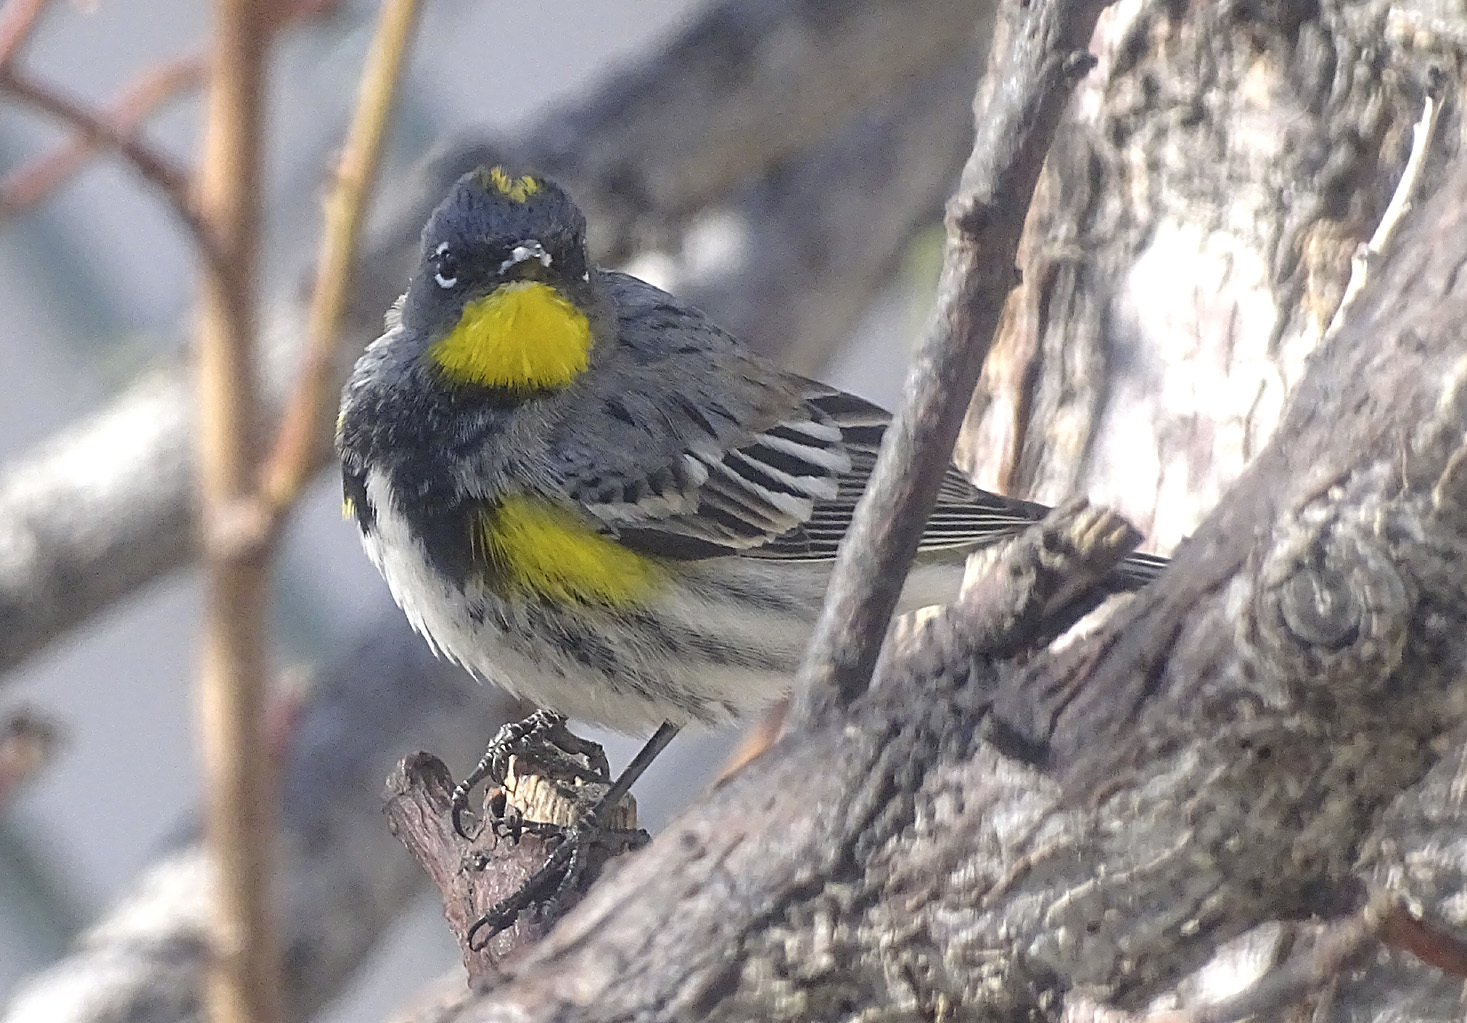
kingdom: Animalia
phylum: Chordata
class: Aves
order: Passeriformes
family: Parulidae
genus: Setophaga
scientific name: Setophaga auduboni
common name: Audubon's warbler
